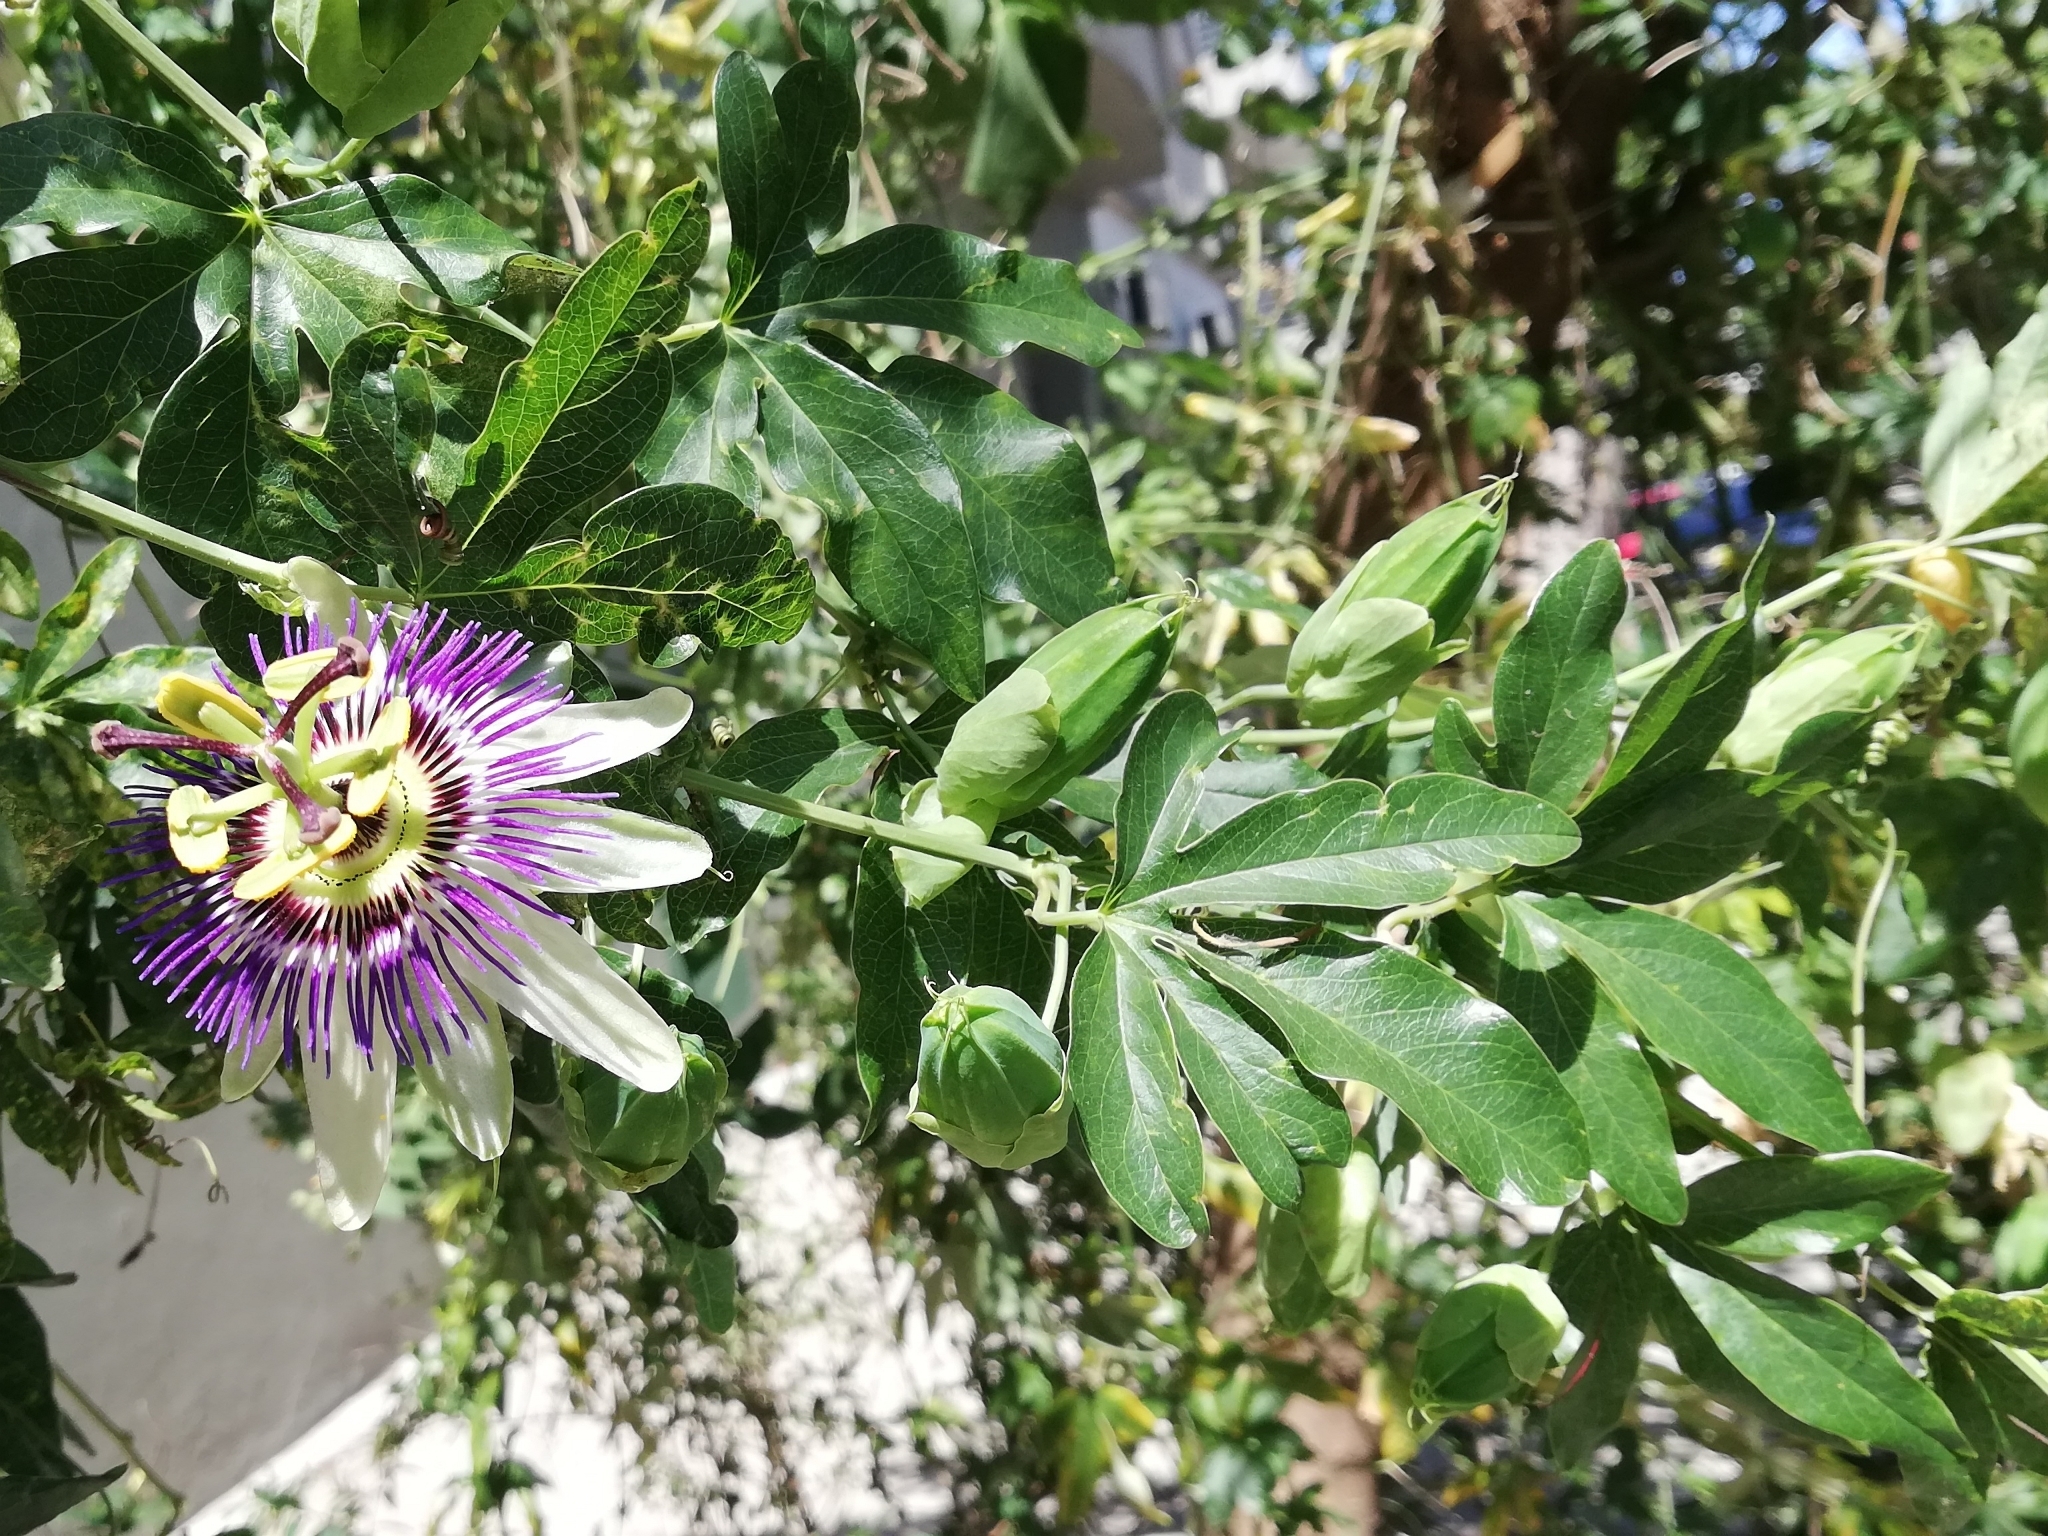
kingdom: Plantae
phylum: Tracheophyta
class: Magnoliopsida
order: Malpighiales
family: Passifloraceae
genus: Passiflora
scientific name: Passiflora caerulea
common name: Blue passionflower
